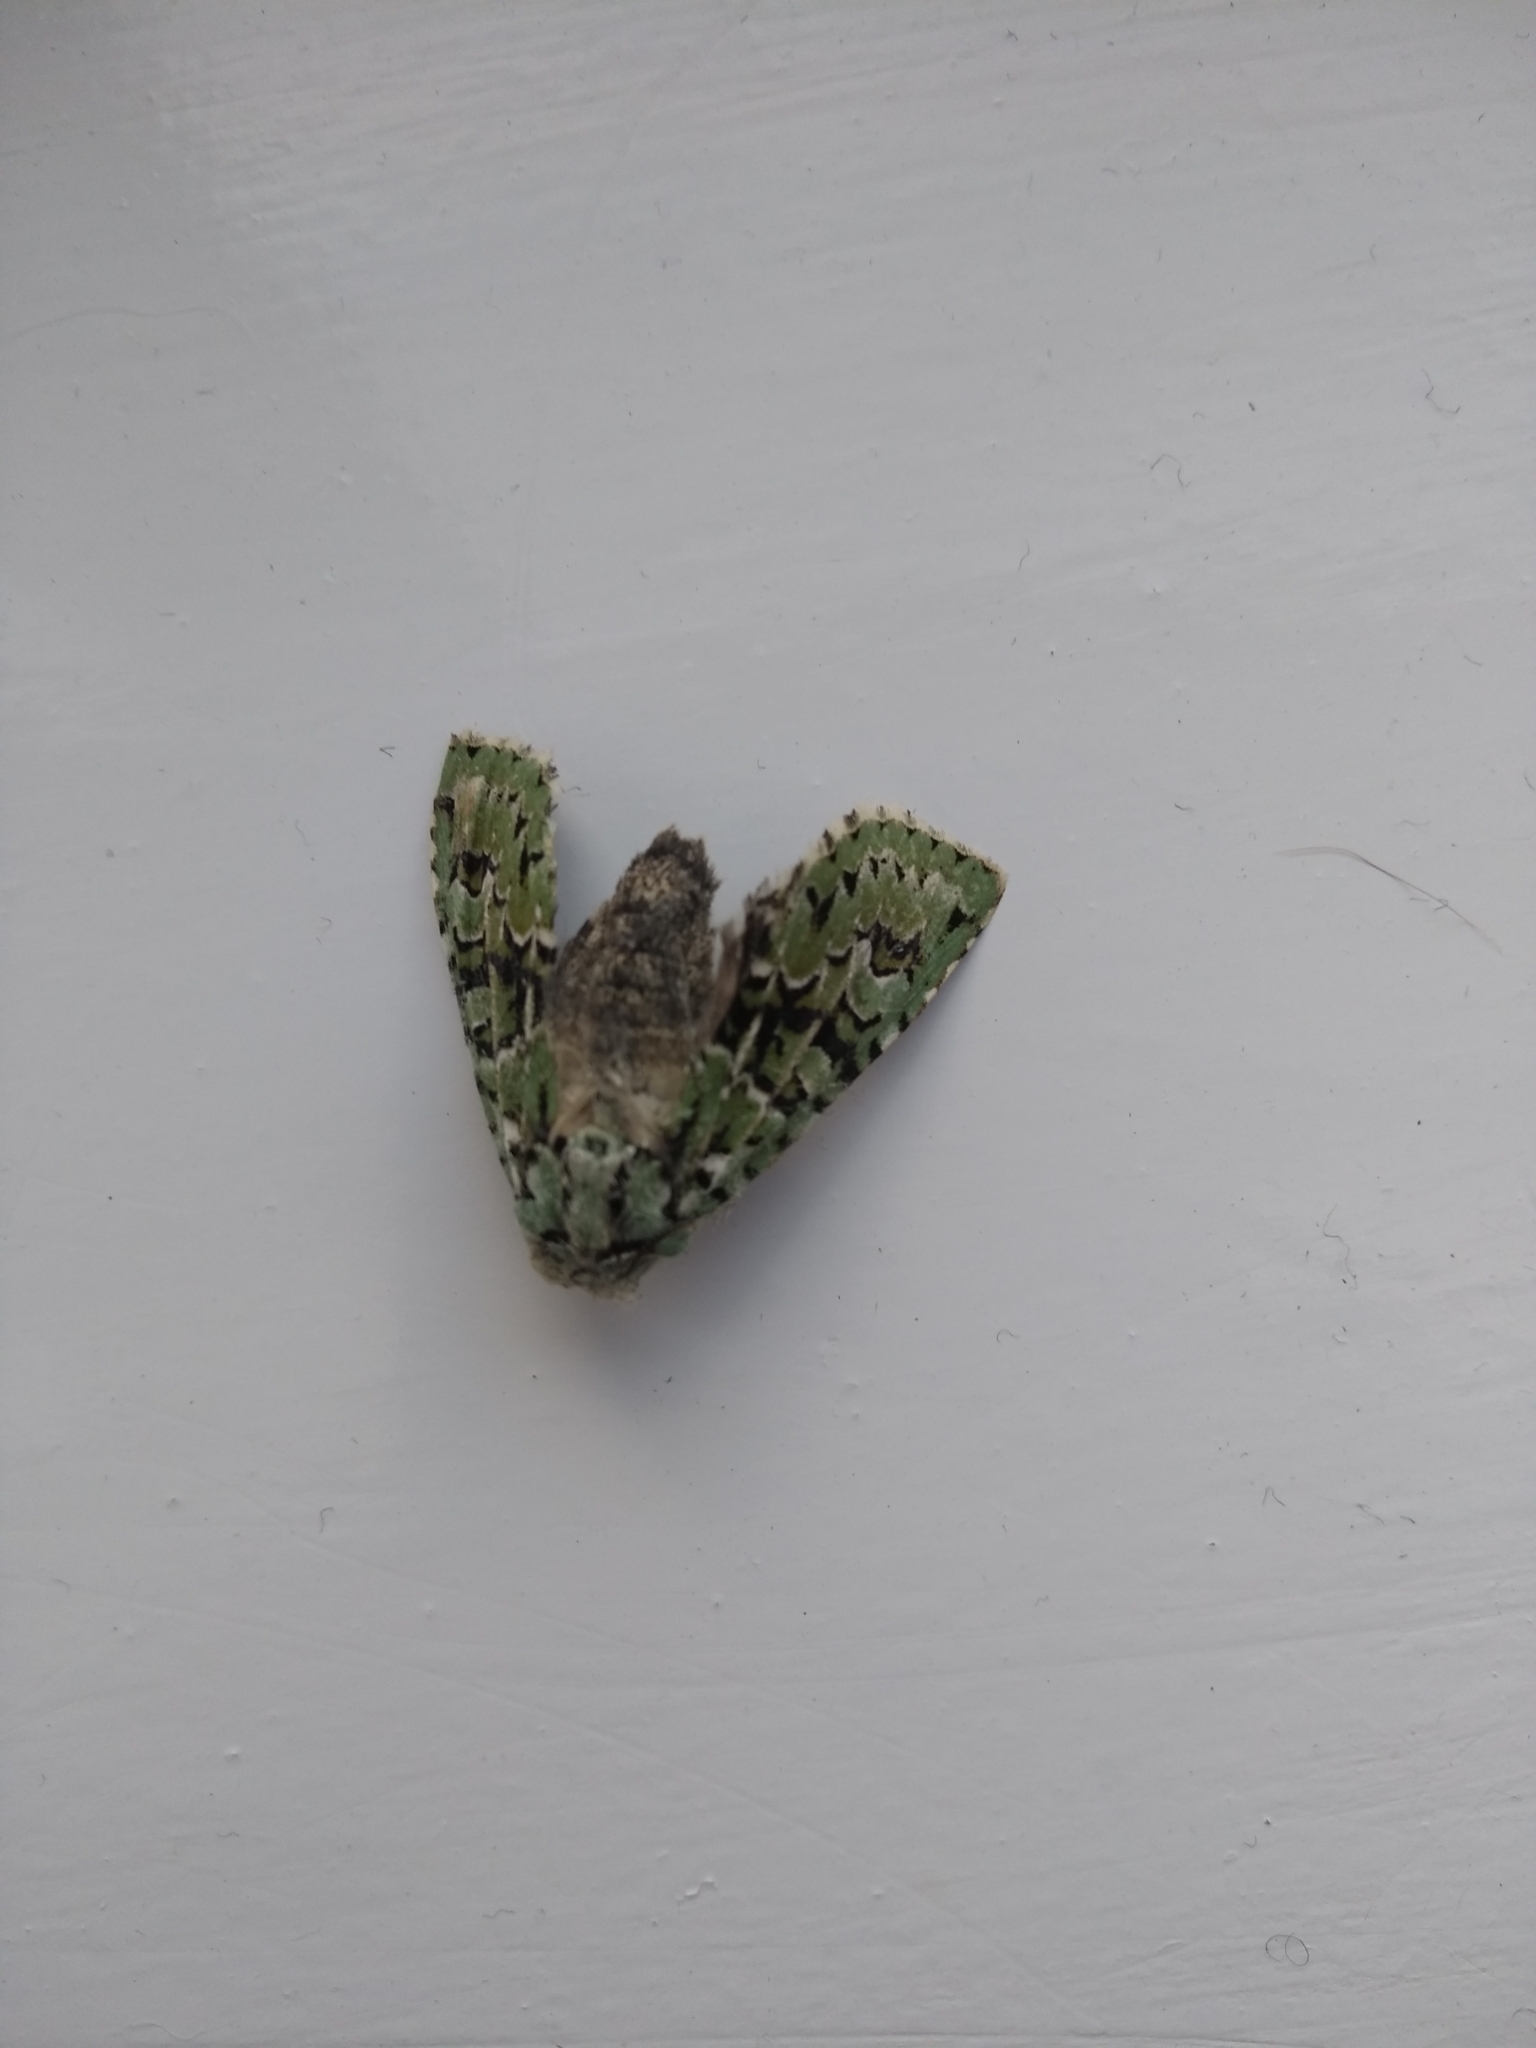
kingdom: Animalia
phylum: Arthropoda
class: Insecta
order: Lepidoptera
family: Noctuidae
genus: Griposia
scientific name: Griposia aprilina
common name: Merveille du jour
